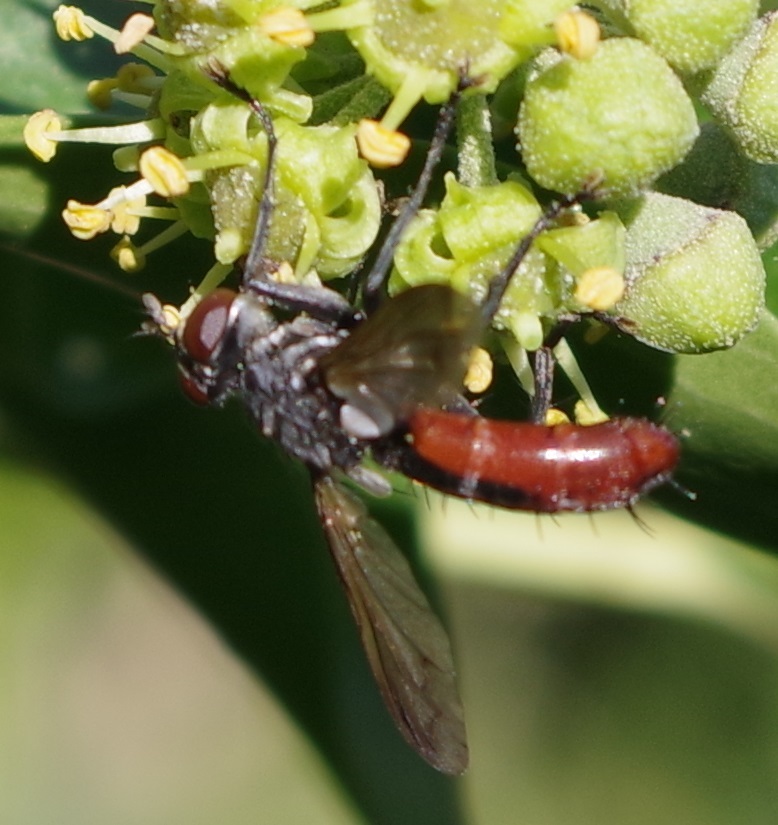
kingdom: Animalia
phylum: Arthropoda
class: Insecta
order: Diptera
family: Tachinidae
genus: Cylindromyia
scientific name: Cylindromyia bicolor
